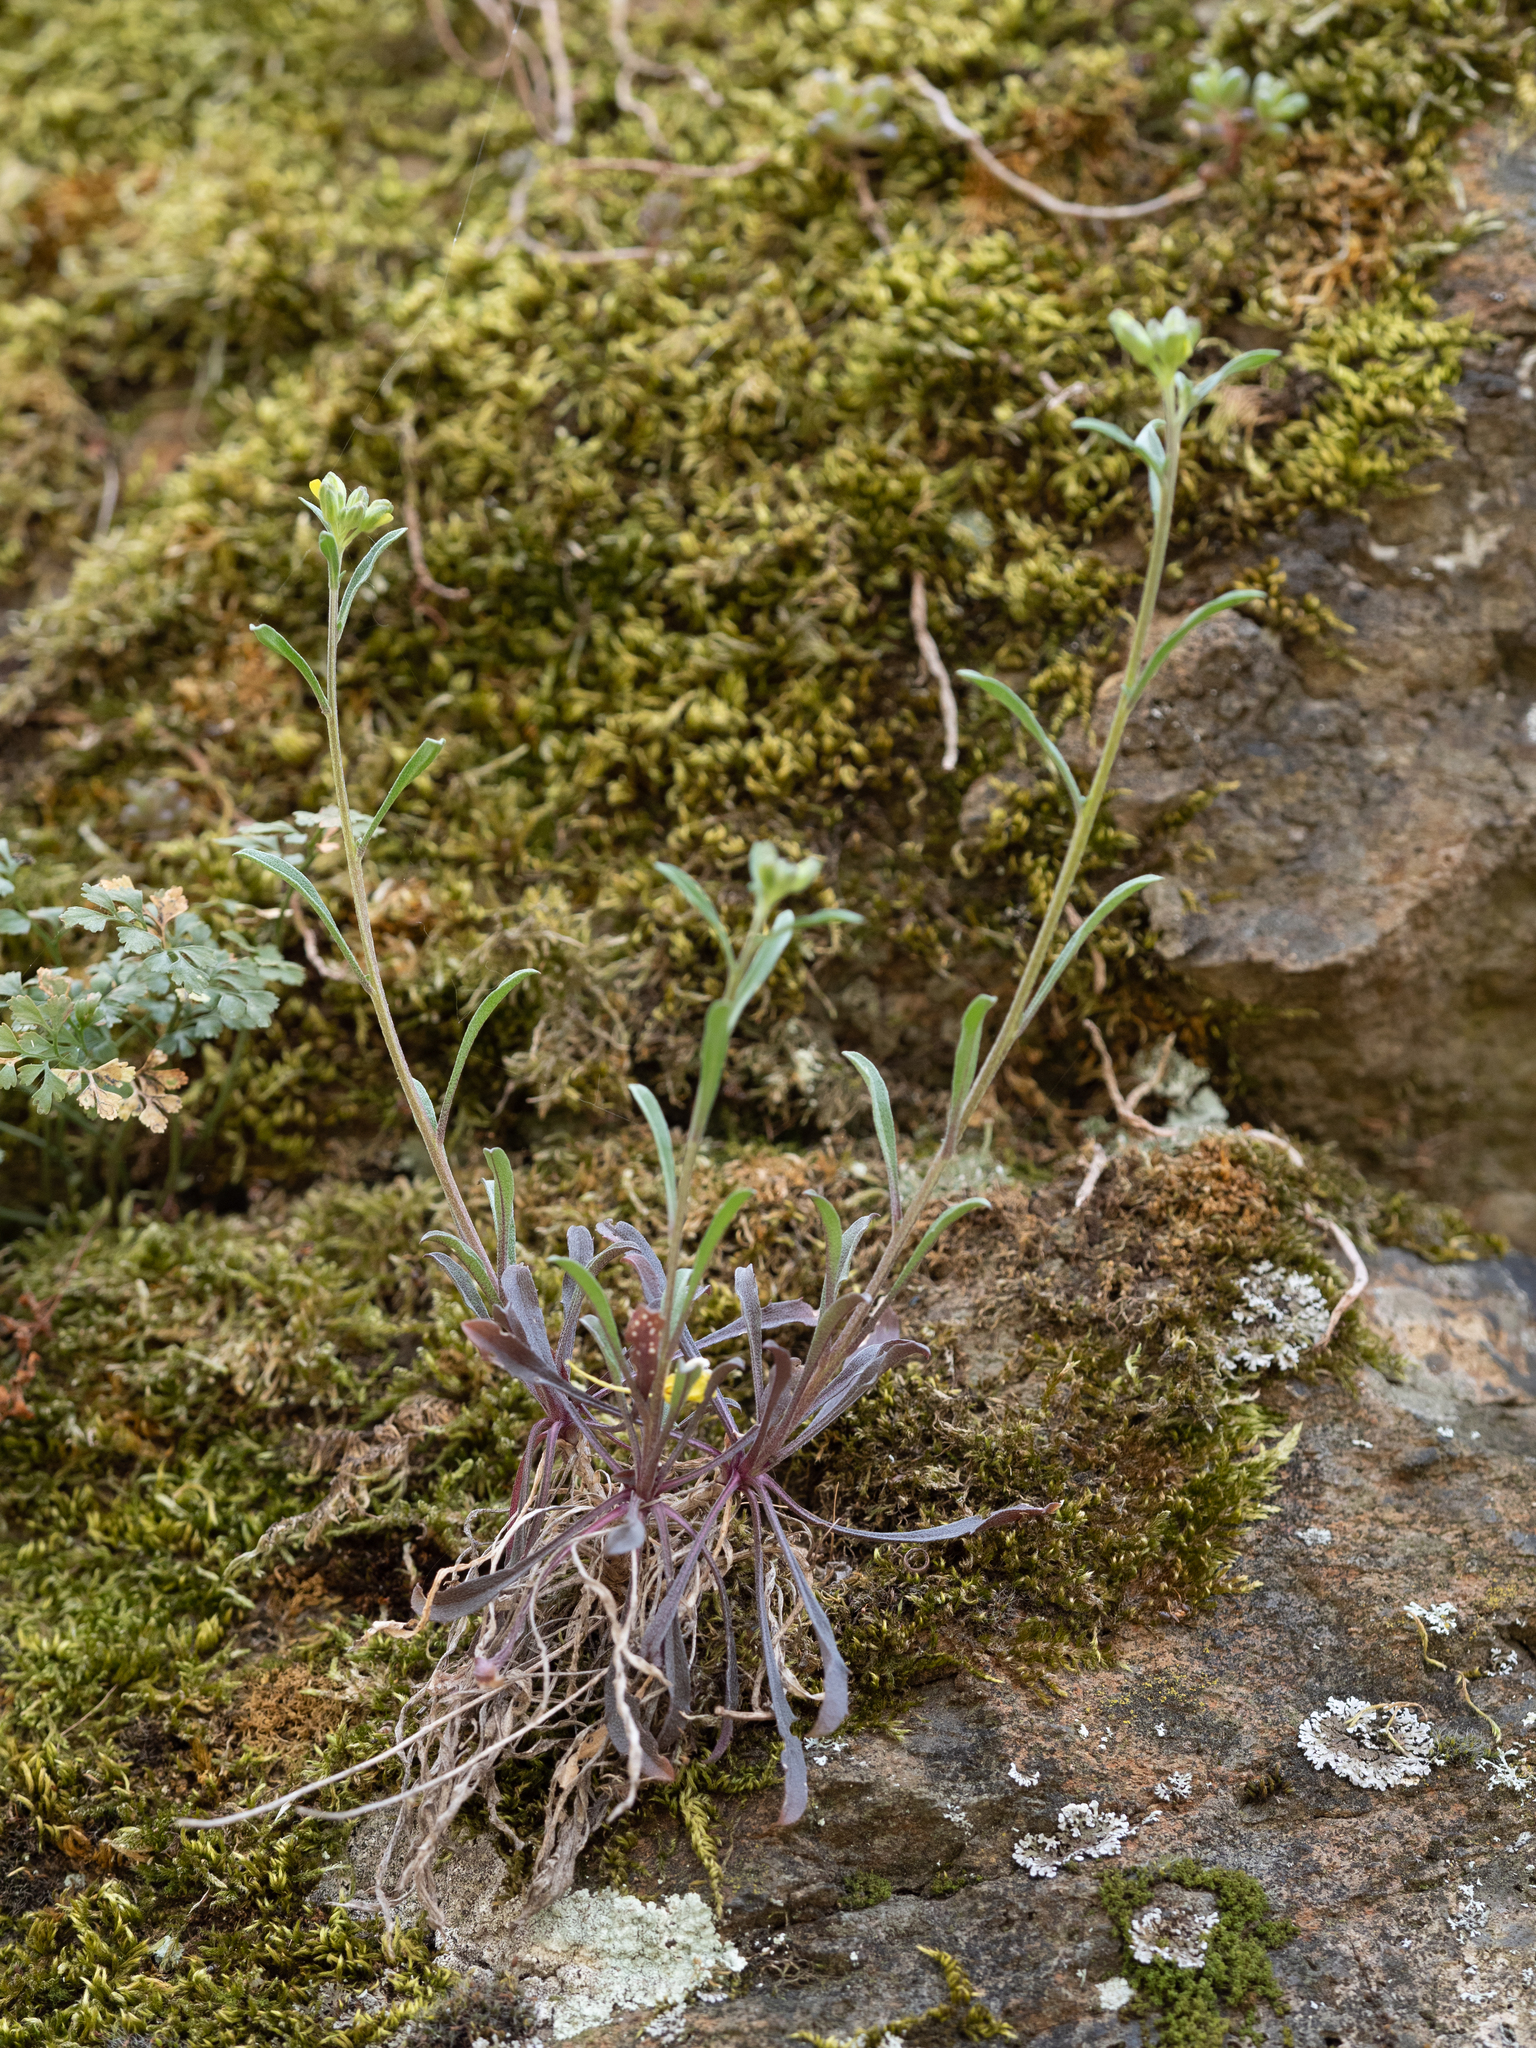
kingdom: Plantae
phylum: Tracheophyta
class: Magnoliopsida
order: Brassicales
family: Brassicaceae
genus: Erysimum
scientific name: Erysimum crepidifolium
